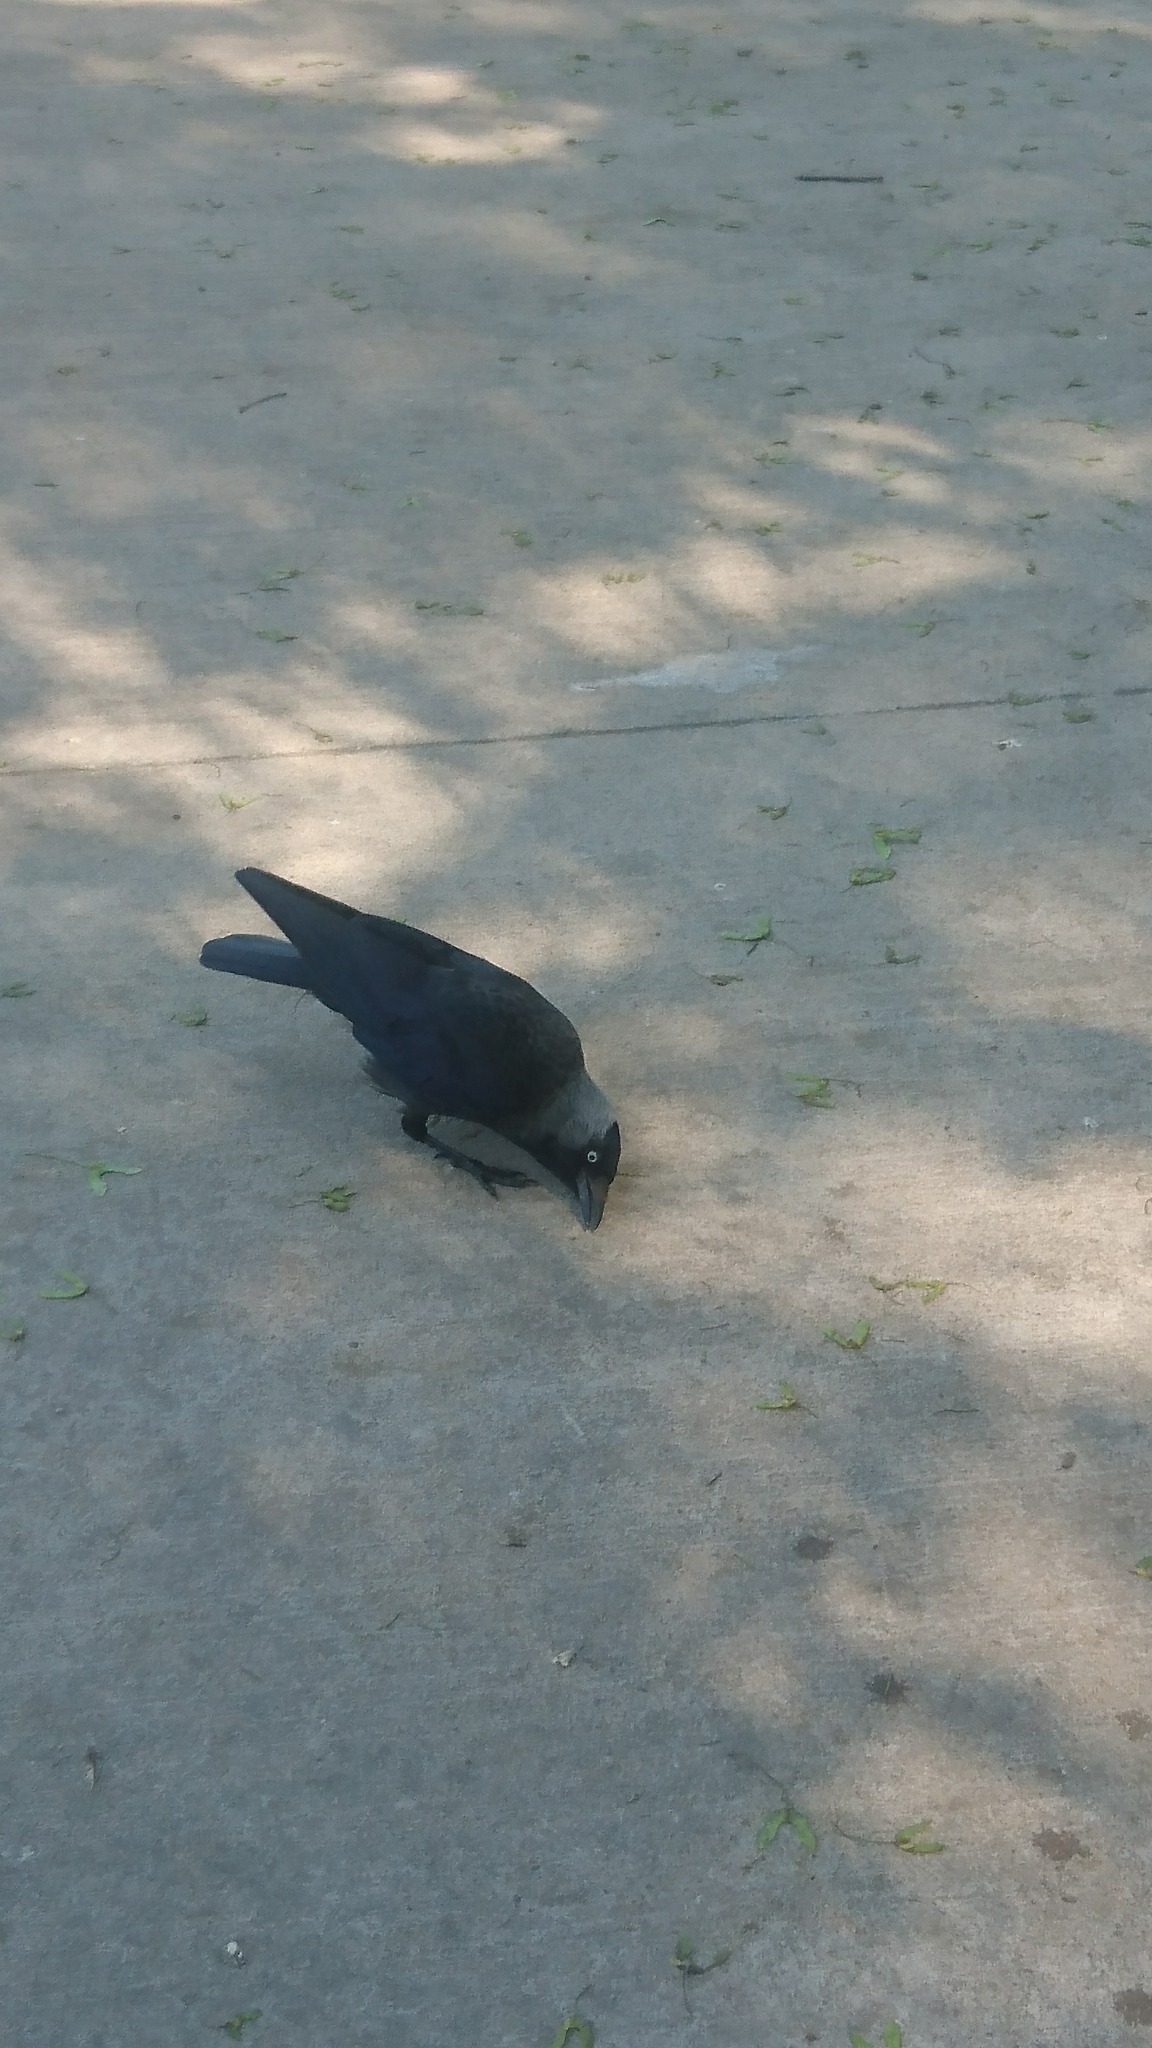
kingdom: Animalia
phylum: Chordata
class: Aves
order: Passeriformes
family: Corvidae
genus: Coloeus
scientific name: Coloeus monedula
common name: Western jackdaw
